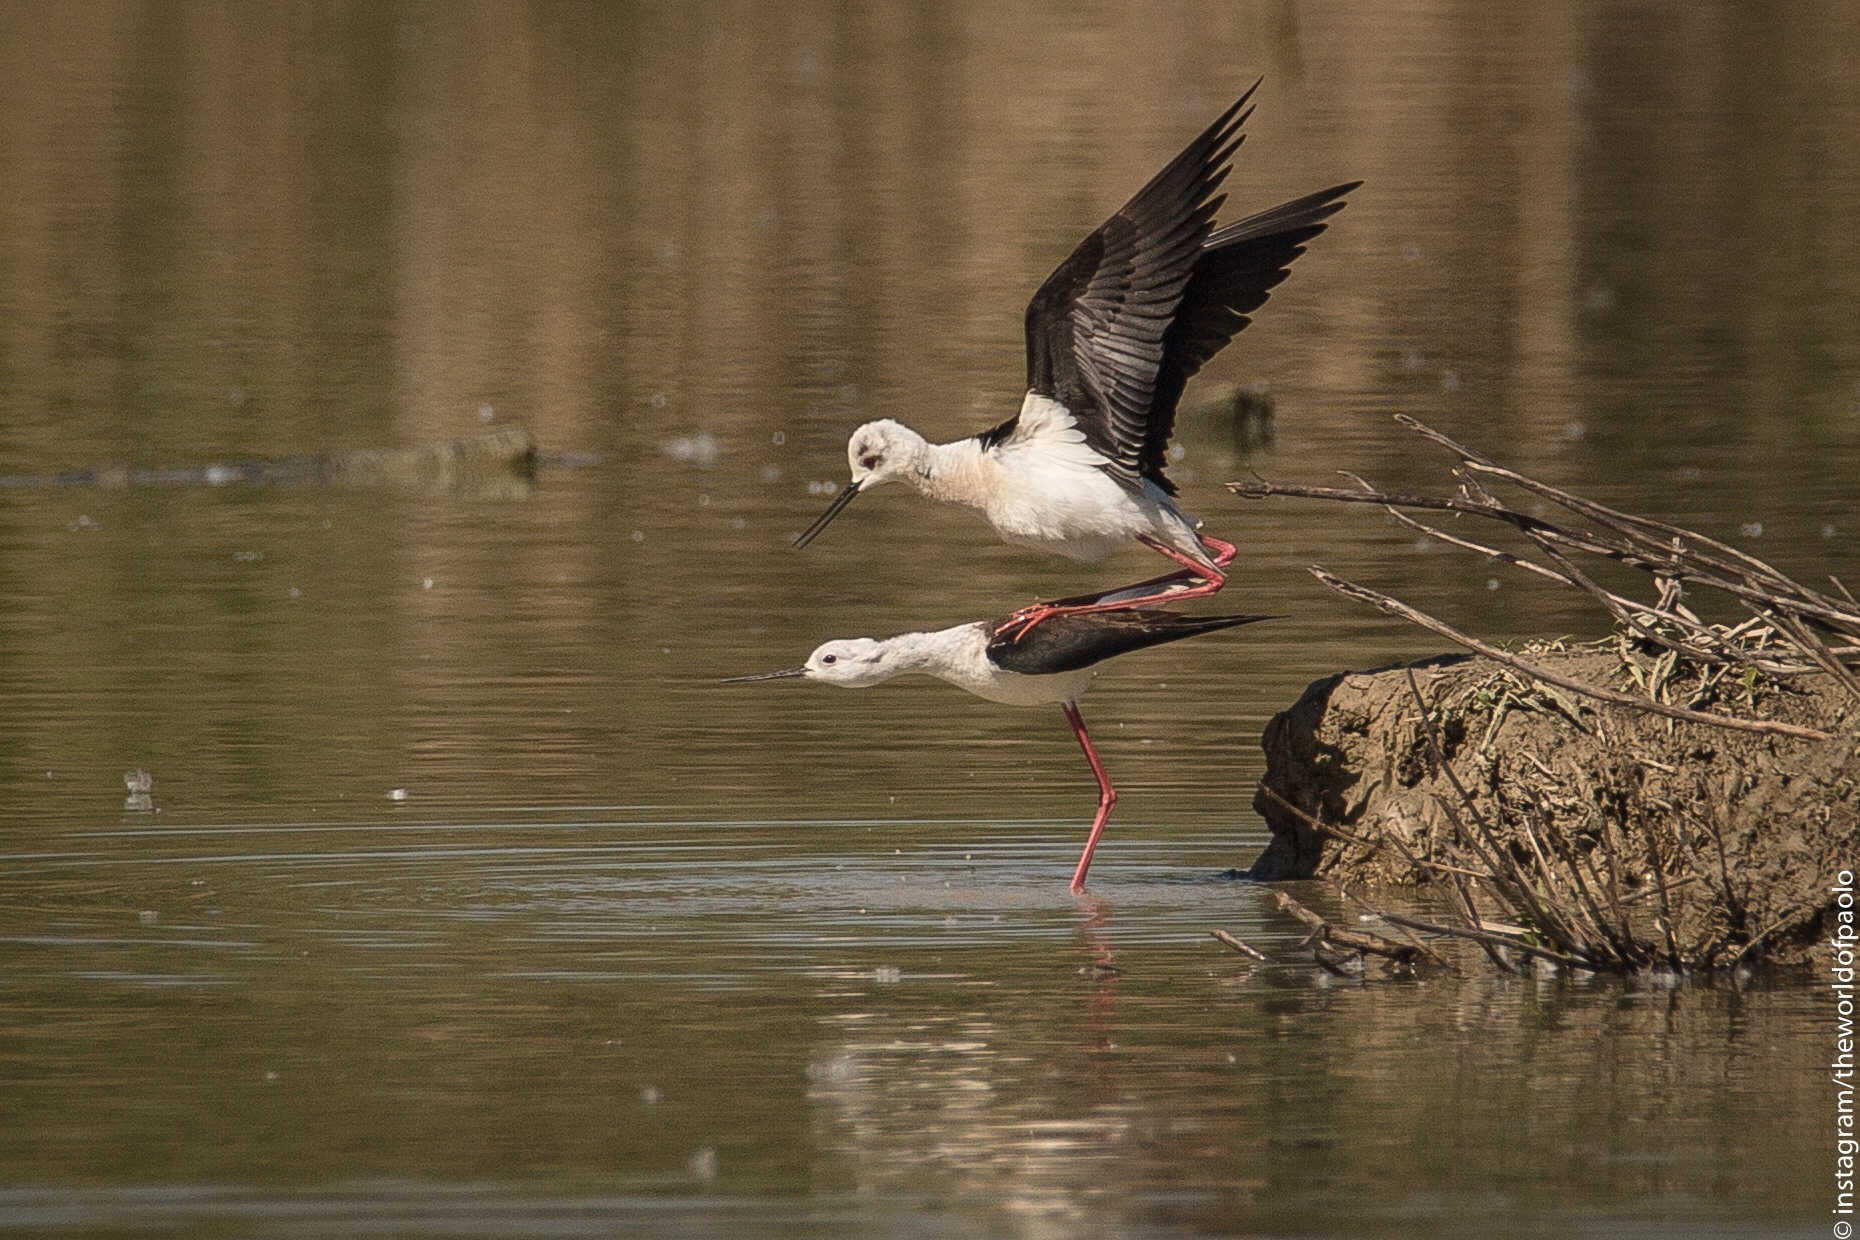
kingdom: Animalia
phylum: Chordata
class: Aves
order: Charadriiformes
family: Recurvirostridae
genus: Himantopus
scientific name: Himantopus himantopus
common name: Black-winged stilt
